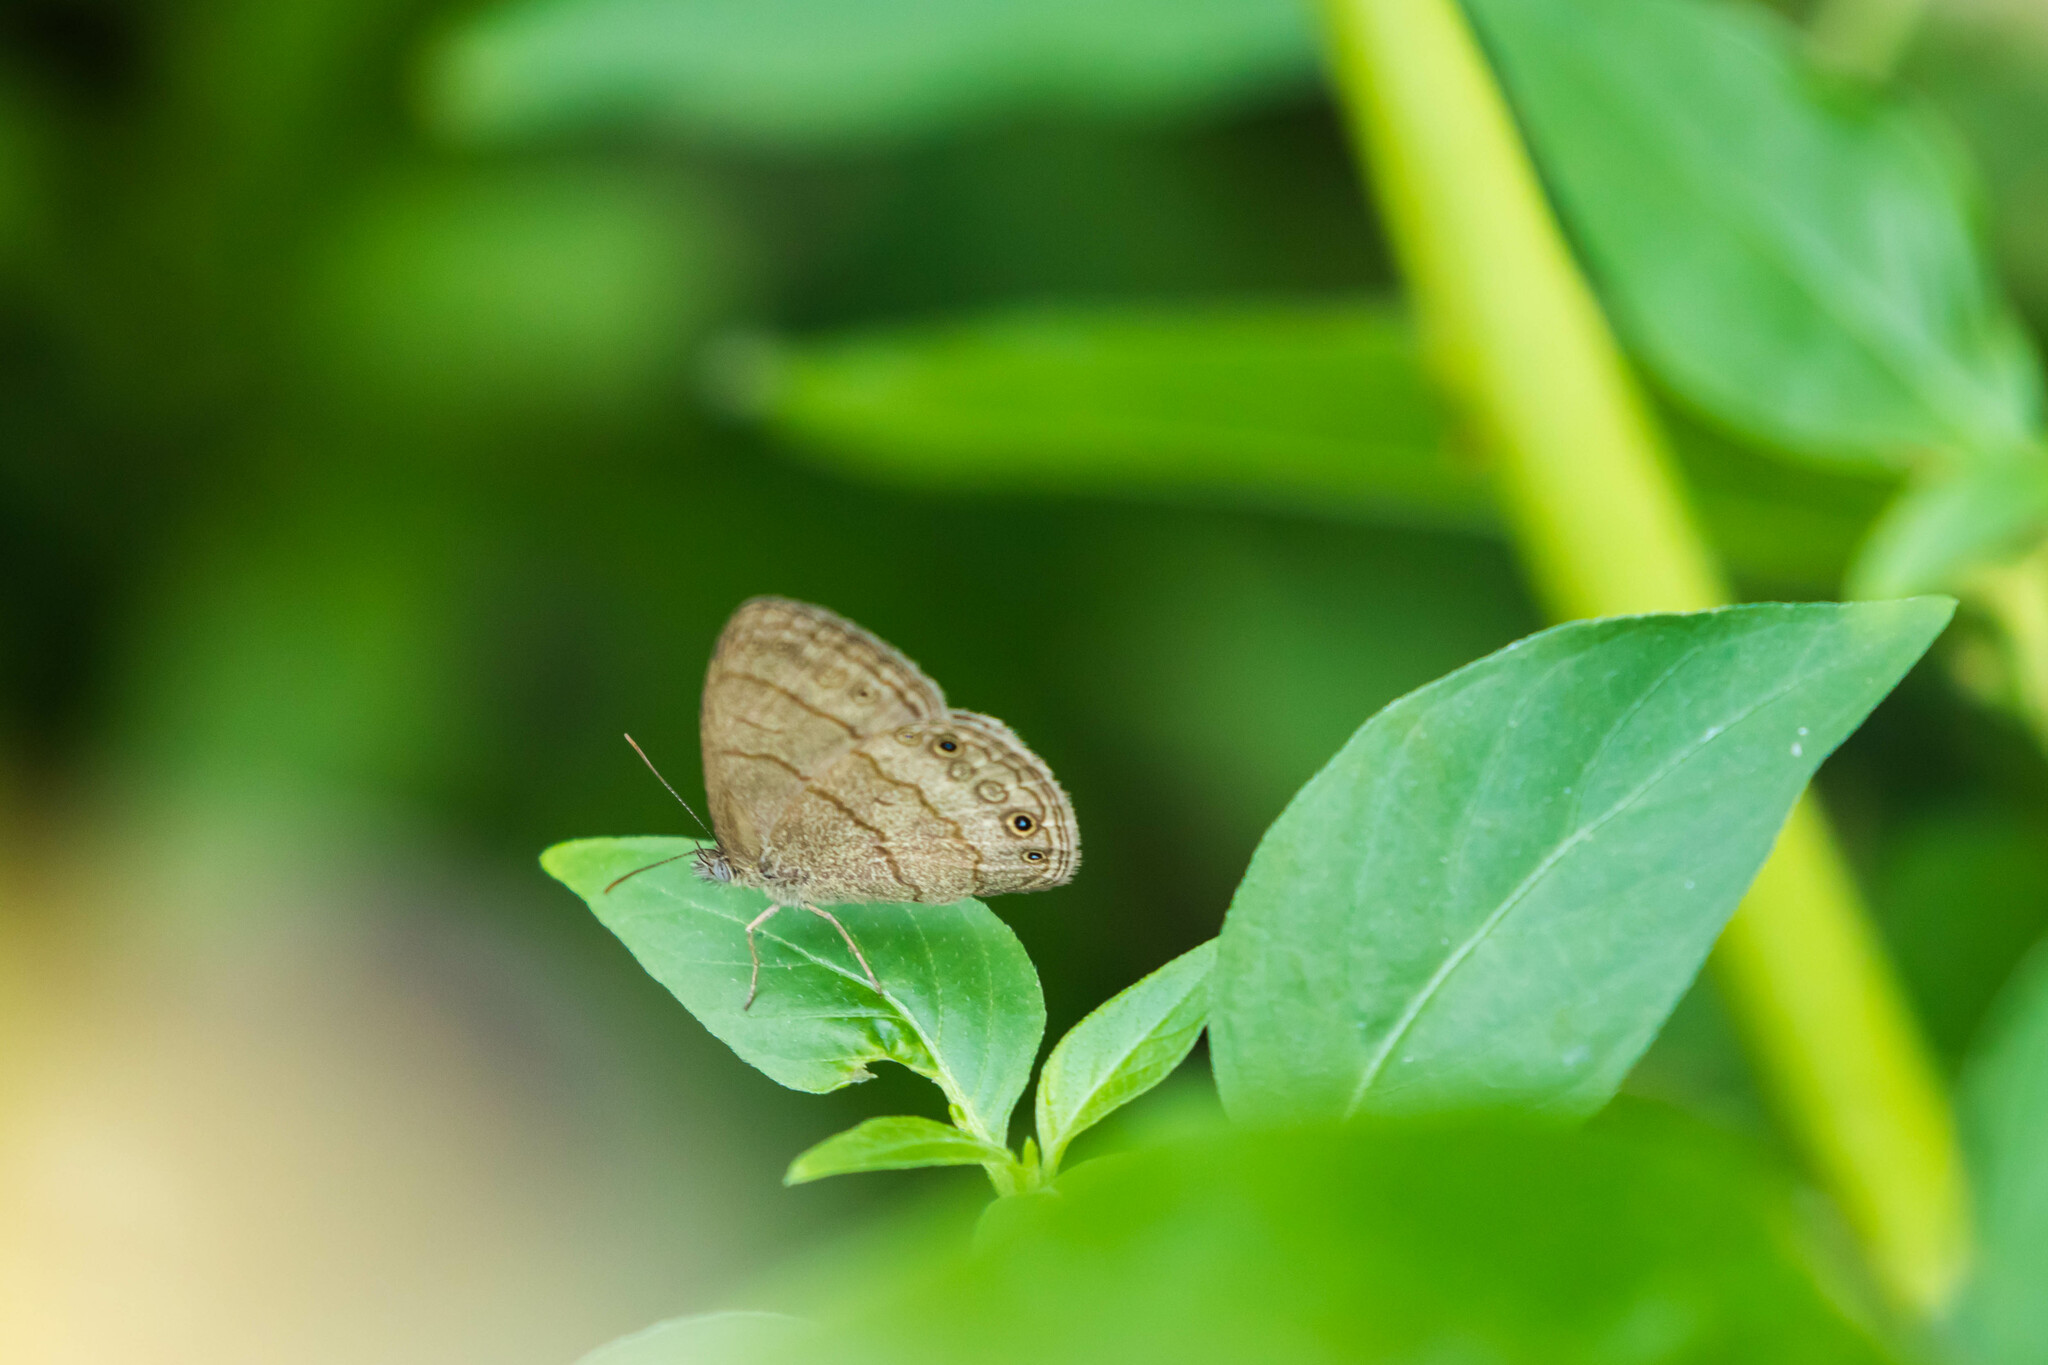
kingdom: Animalia
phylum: Arthropoda
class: Insecta
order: Lepidoptera
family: Nymphalidae
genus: Hermeuptychia
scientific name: Hermeuptychia hermybius
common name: South texas satyr
